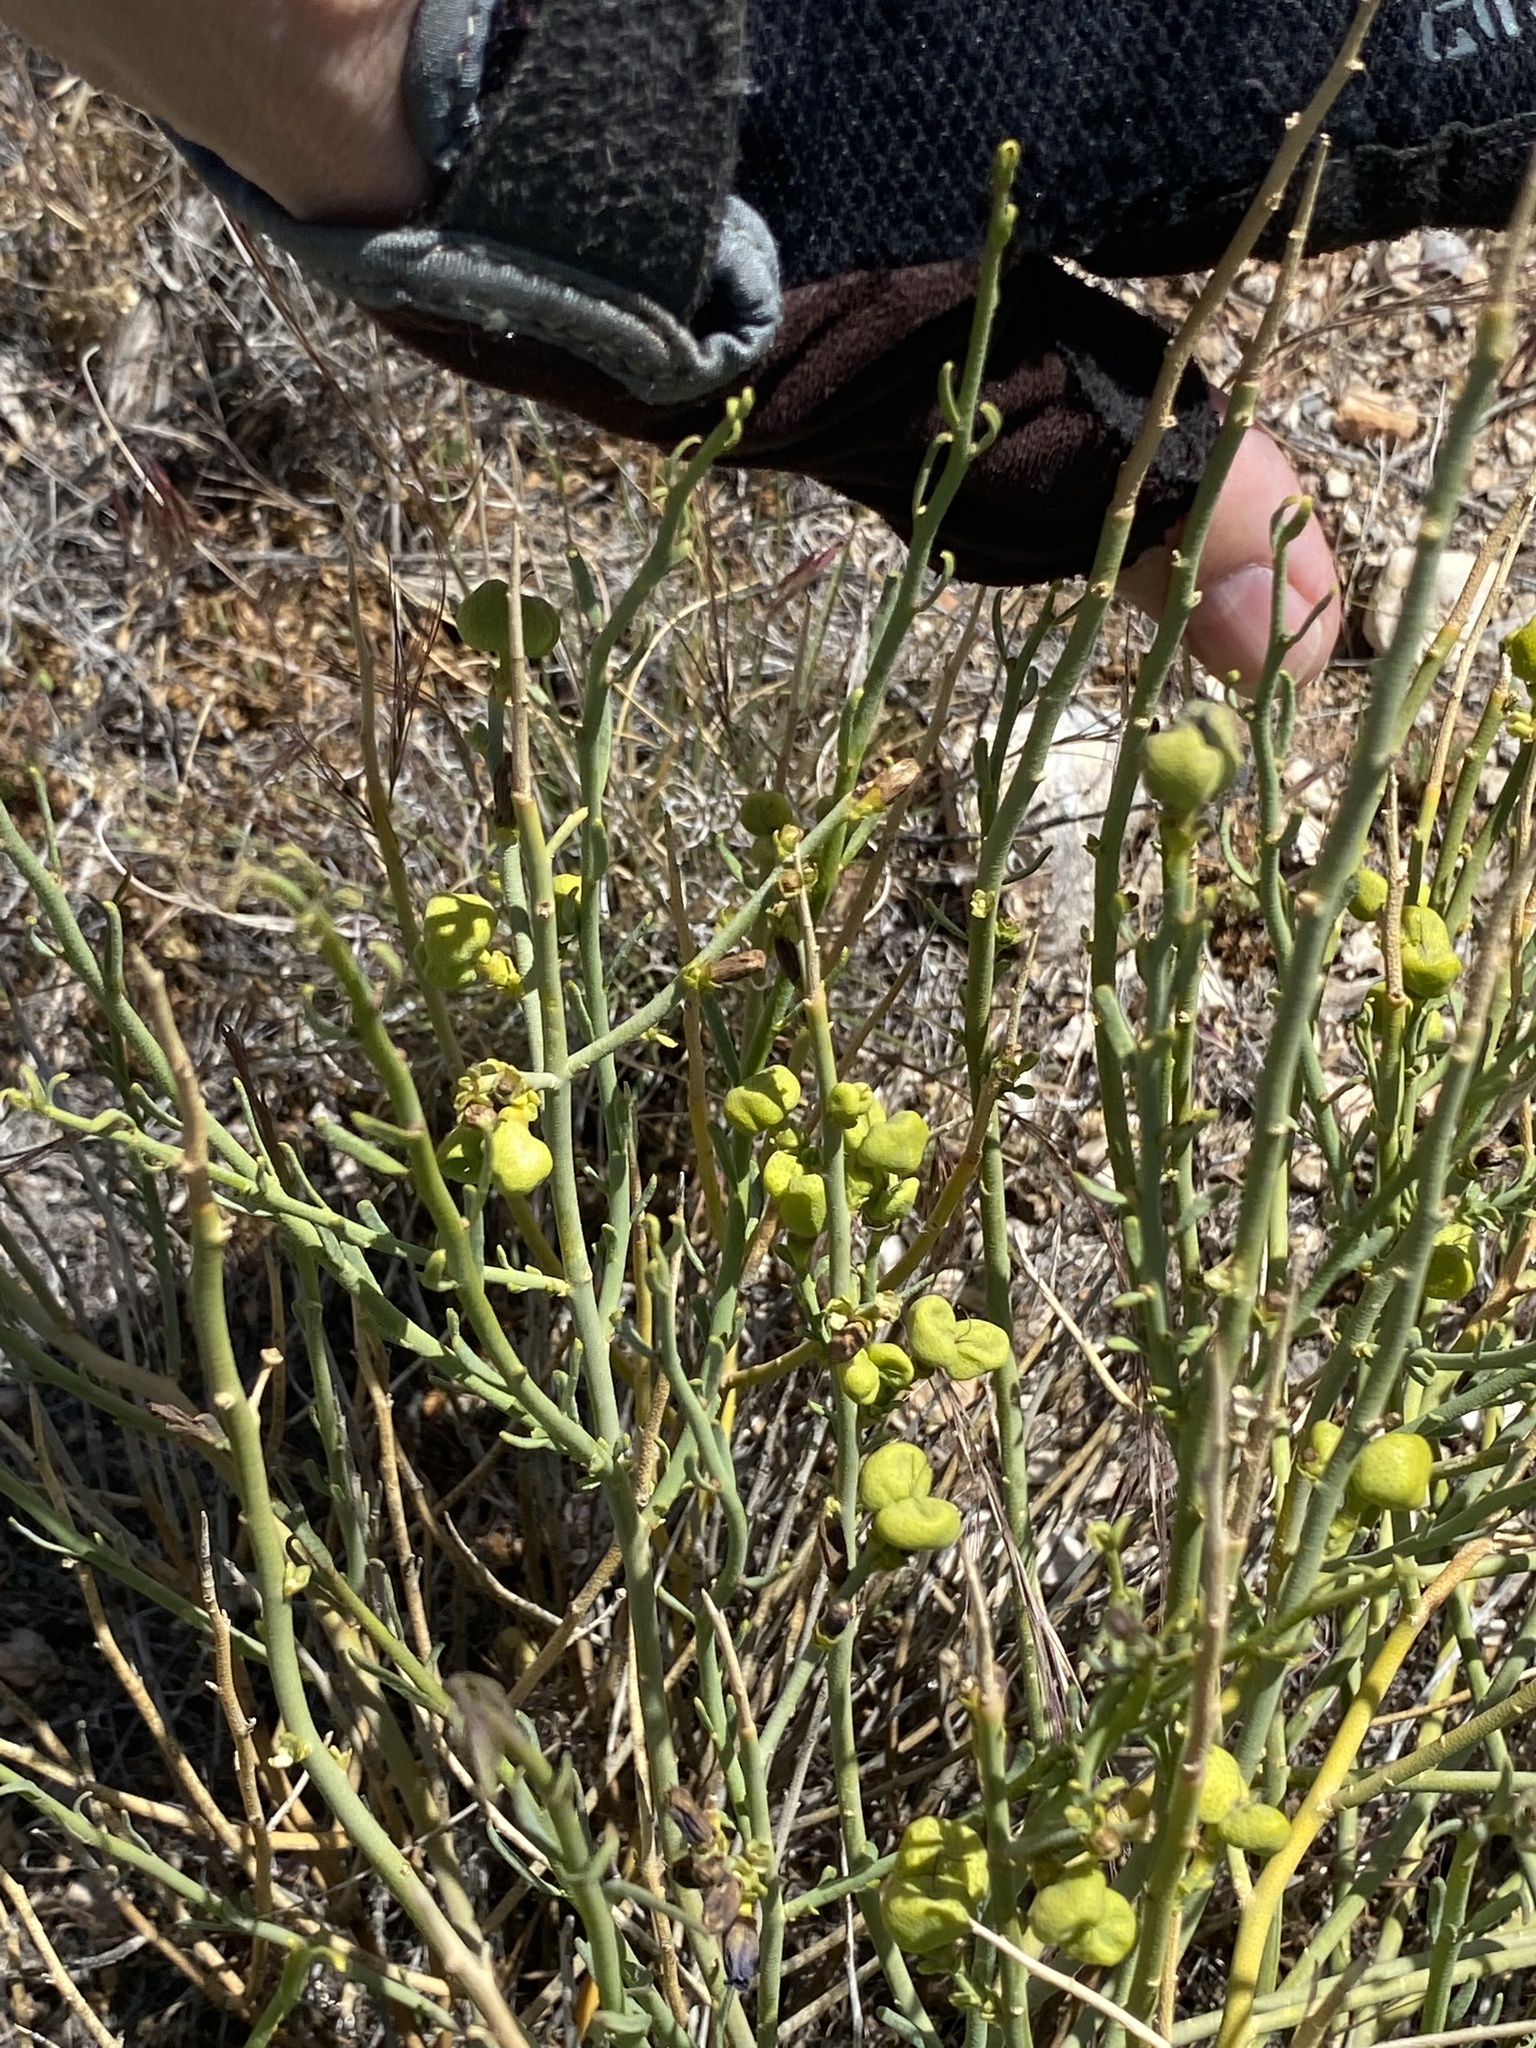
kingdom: Plantae
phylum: Tracheophyta
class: Magnoliopsida
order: Sapindales
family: Rutaceae
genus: Thamnosma
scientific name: Thamnosma montana
